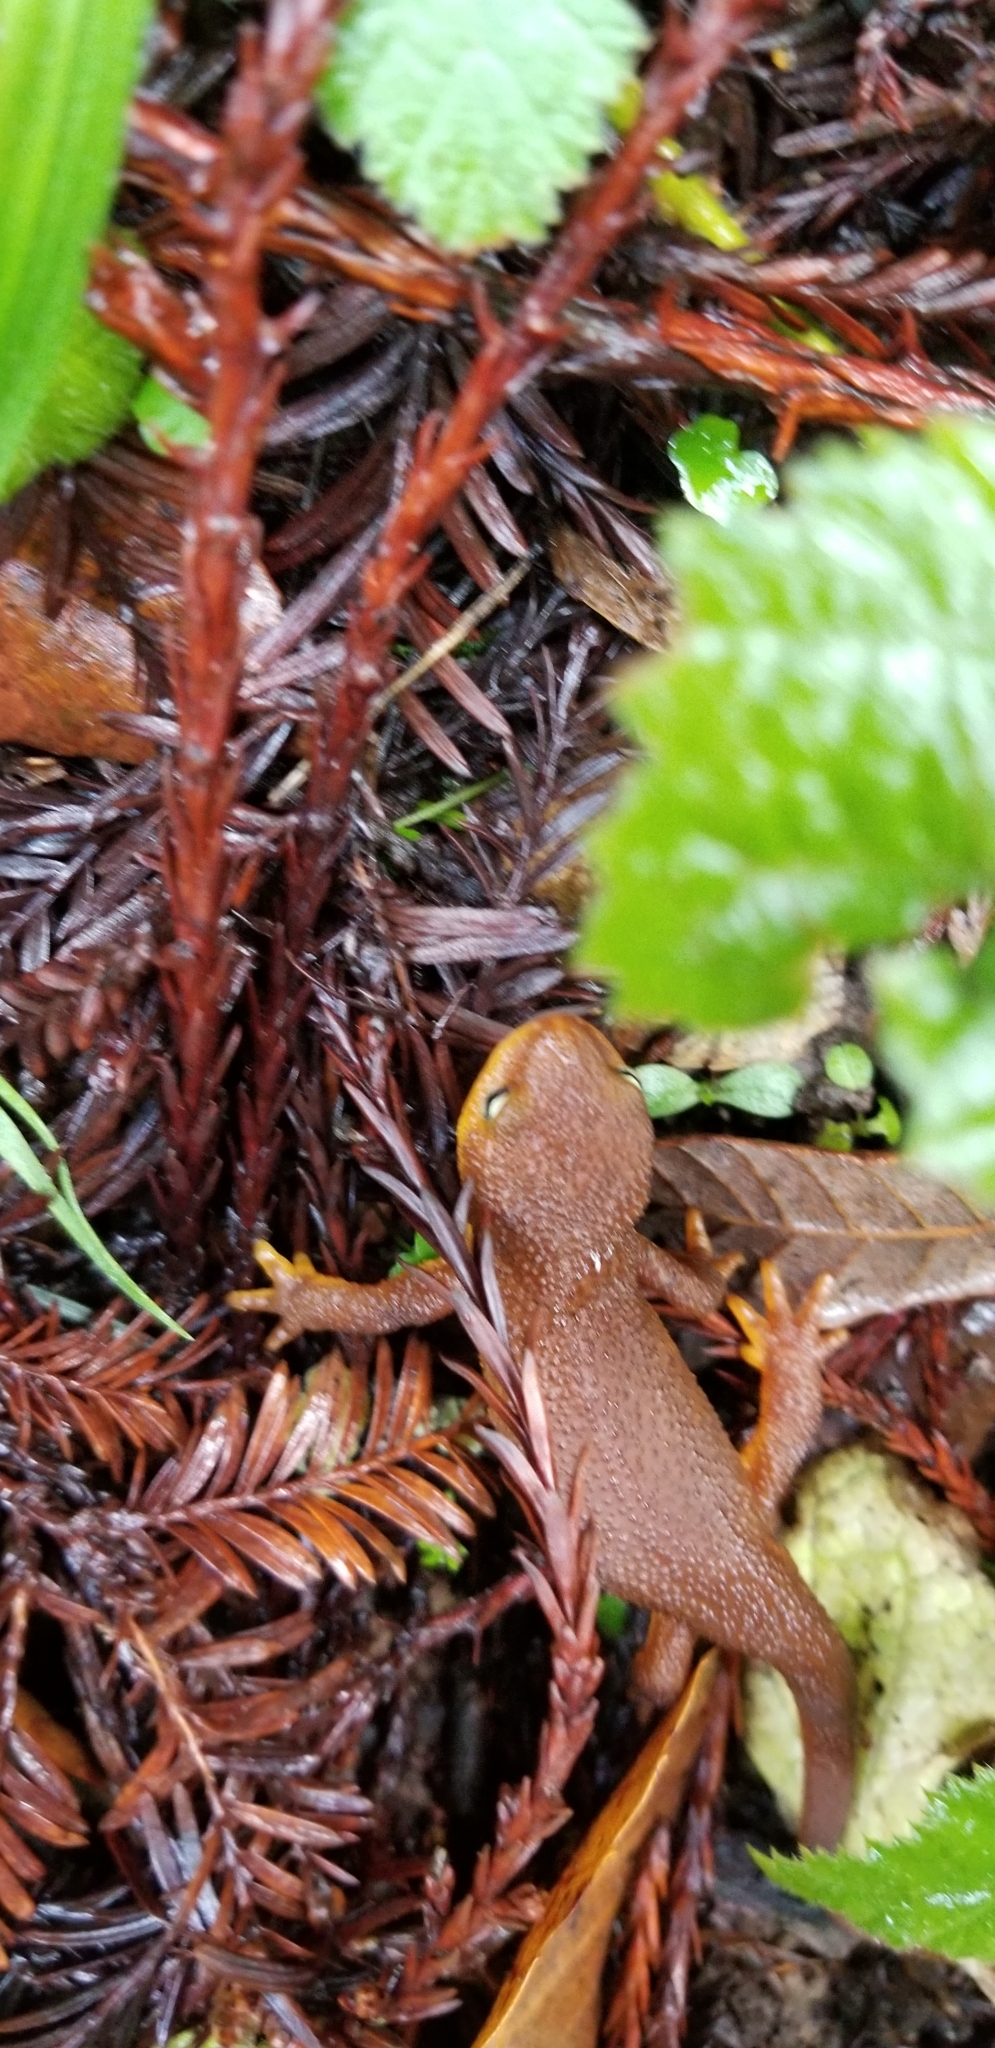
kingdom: Animalia
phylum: Chordata
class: Amphibia
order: Caudata
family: Salamandridae
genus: Taricha
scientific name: Taricha torosa
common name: California newt
